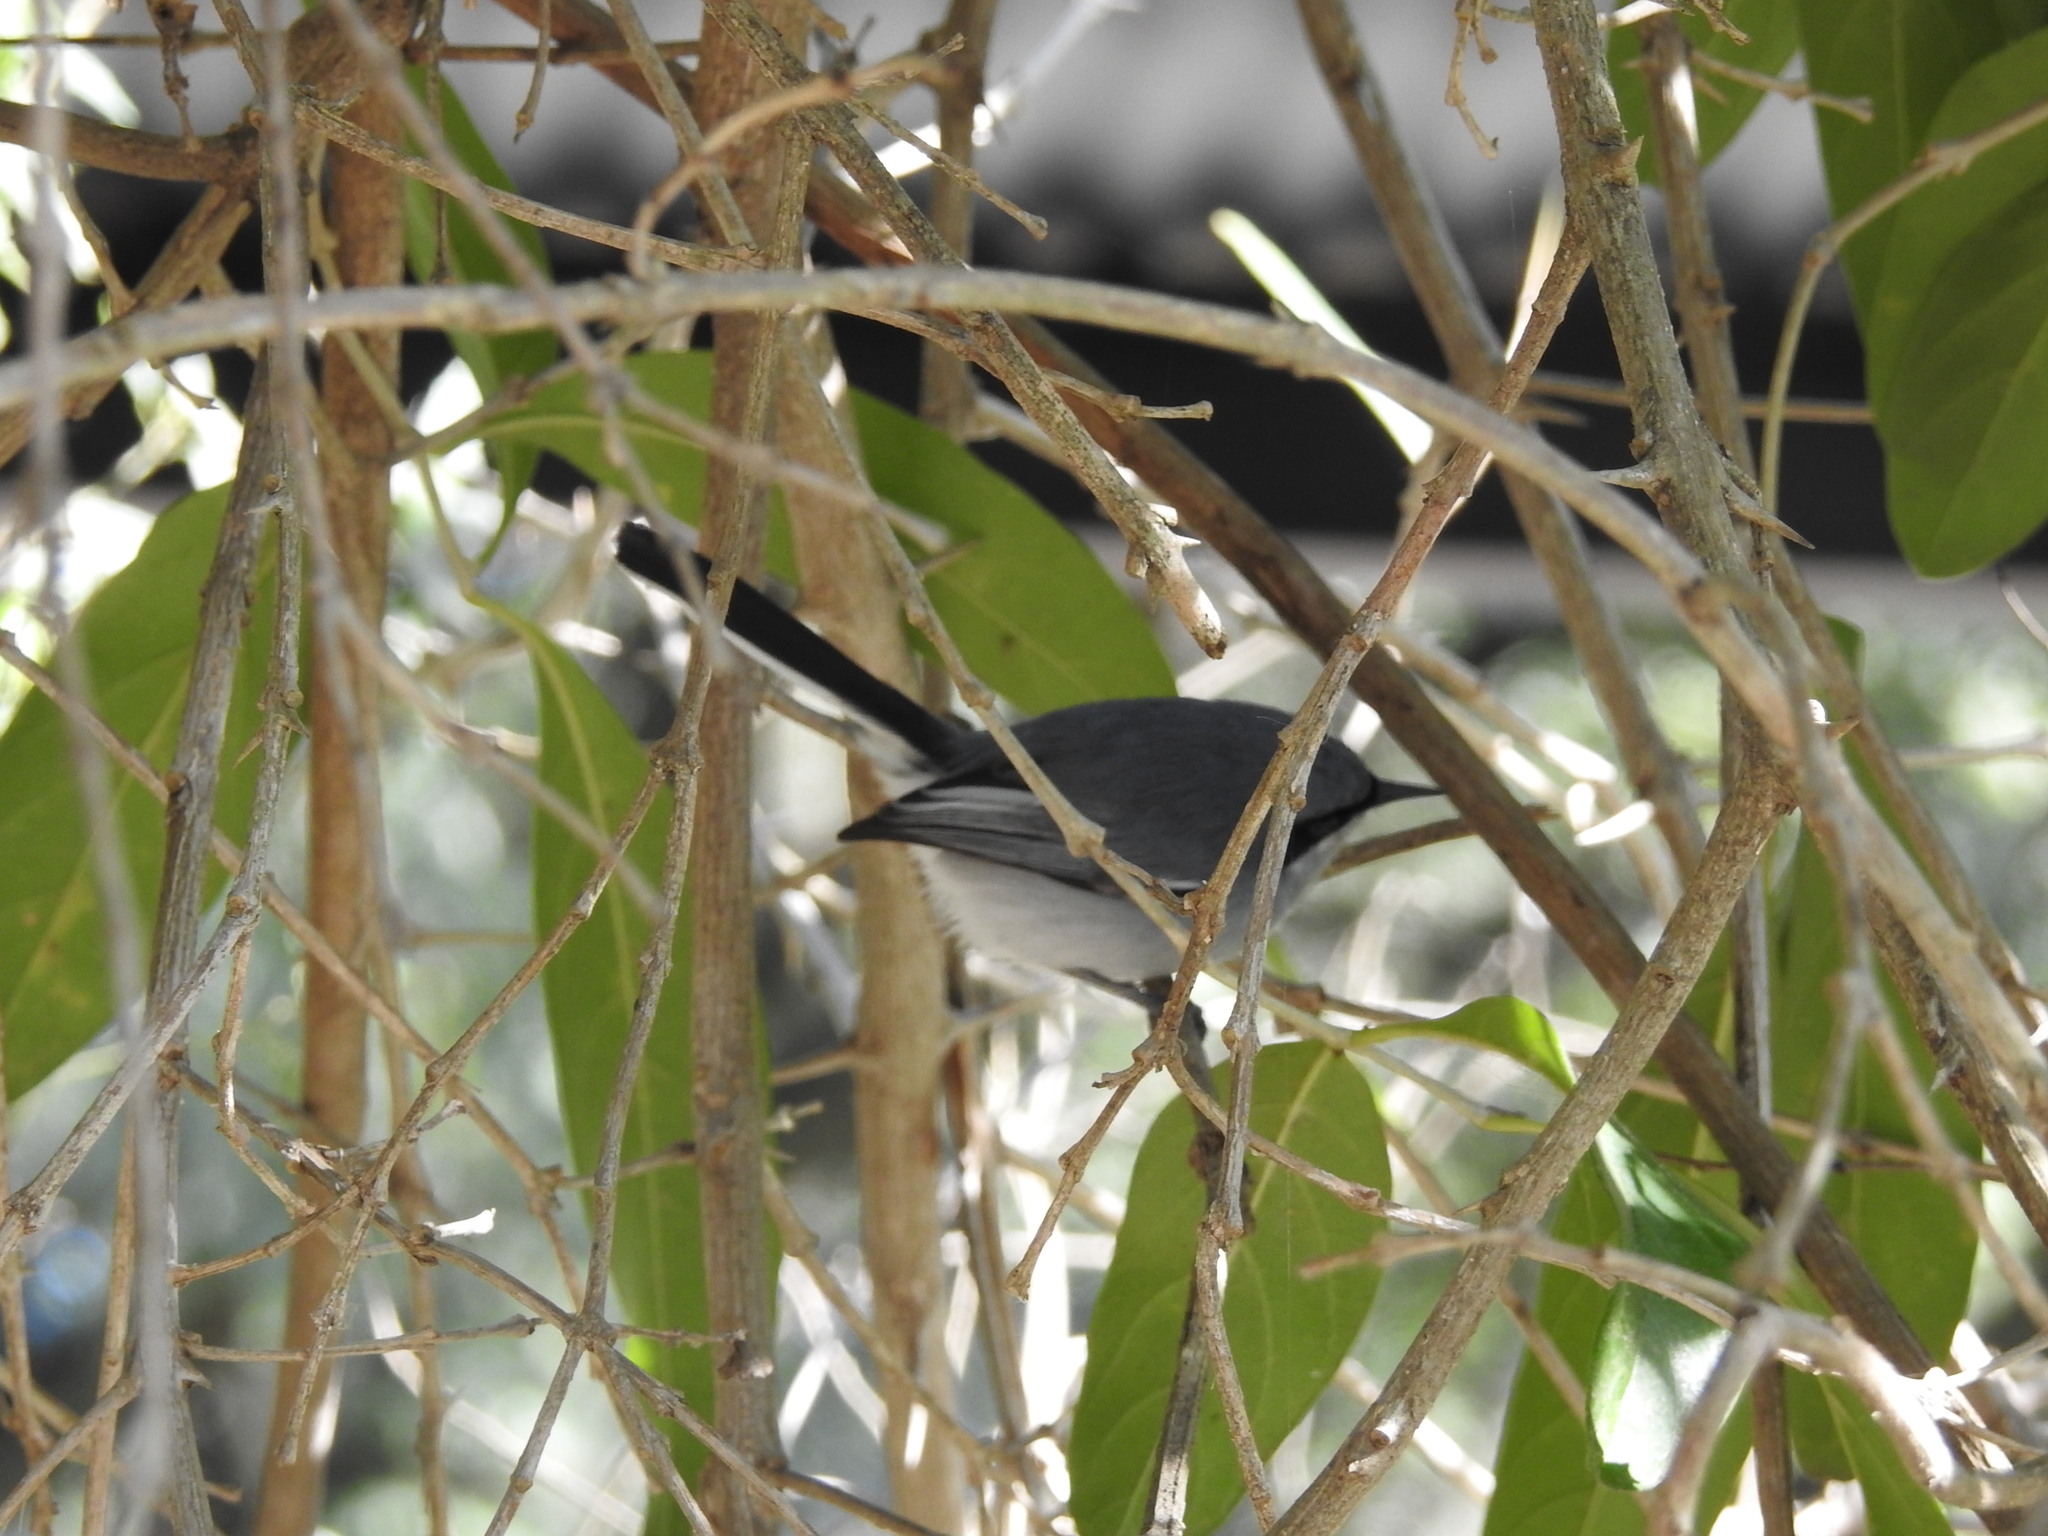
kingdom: Animalia
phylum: Chordata
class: Aves
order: Passeriformes
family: Polioptilidae
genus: Polioptila
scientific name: Polioptila dumicola
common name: Masked gnatcatcher
